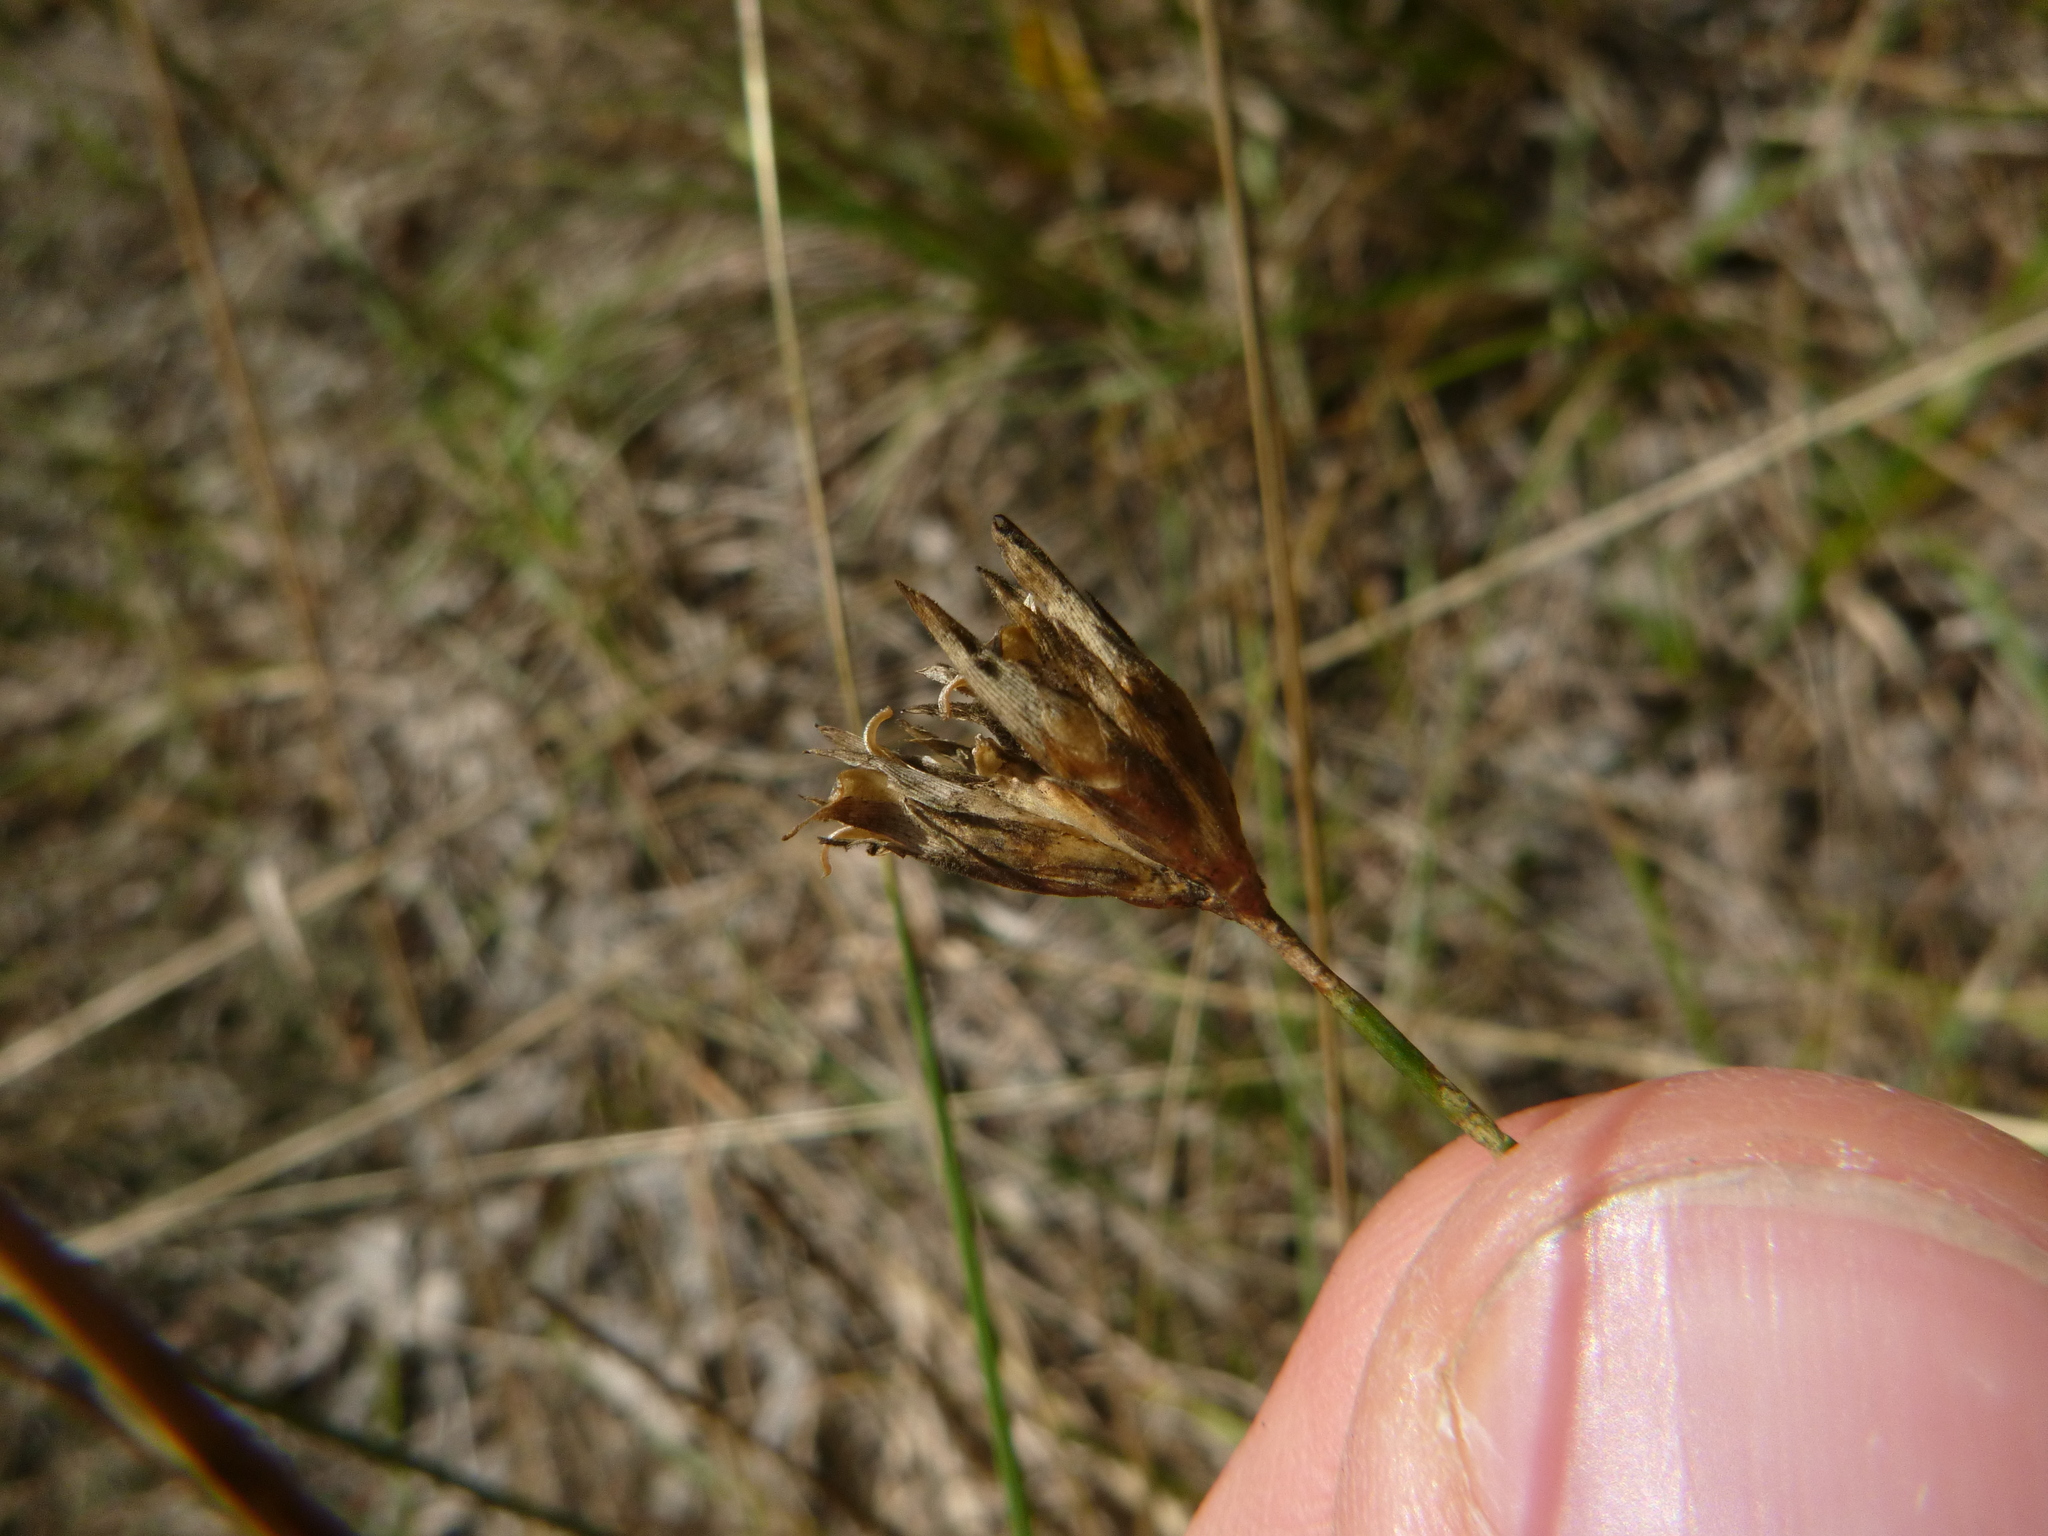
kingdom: Plantae
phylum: Tracheophyta
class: Magnoliopsida
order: Caryophyllales
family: Caryophyllaceae
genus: Dianthus
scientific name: Dianthus pontederae
